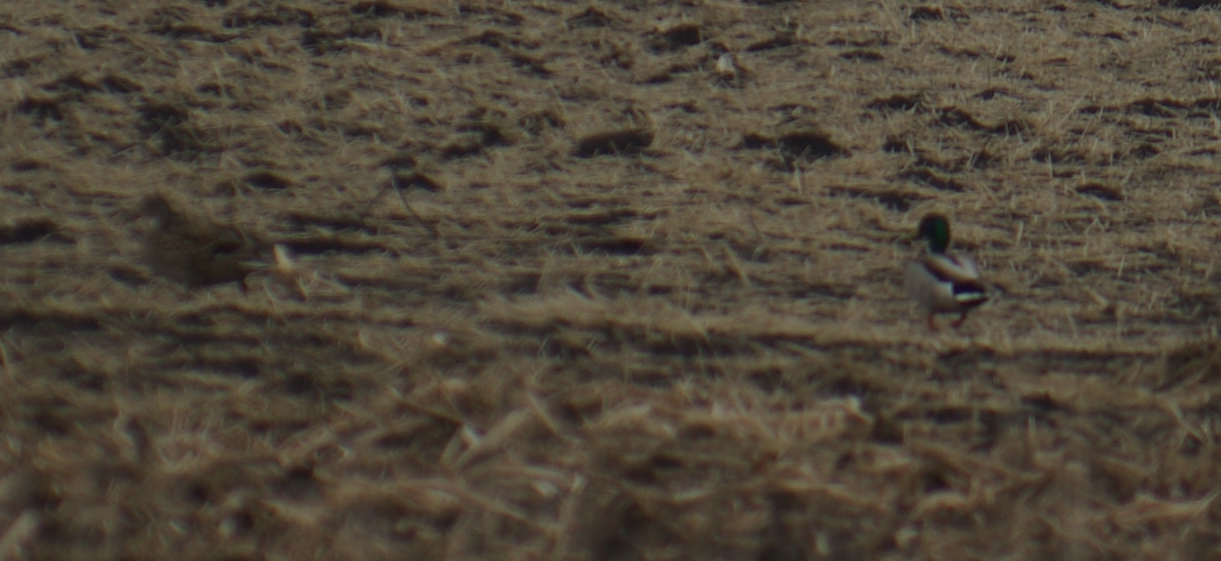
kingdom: Animalia
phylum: Chordata
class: Aves
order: Anseriformes
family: Anatidae
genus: Anas
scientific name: Anas platyrhynchos
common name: Mallard
